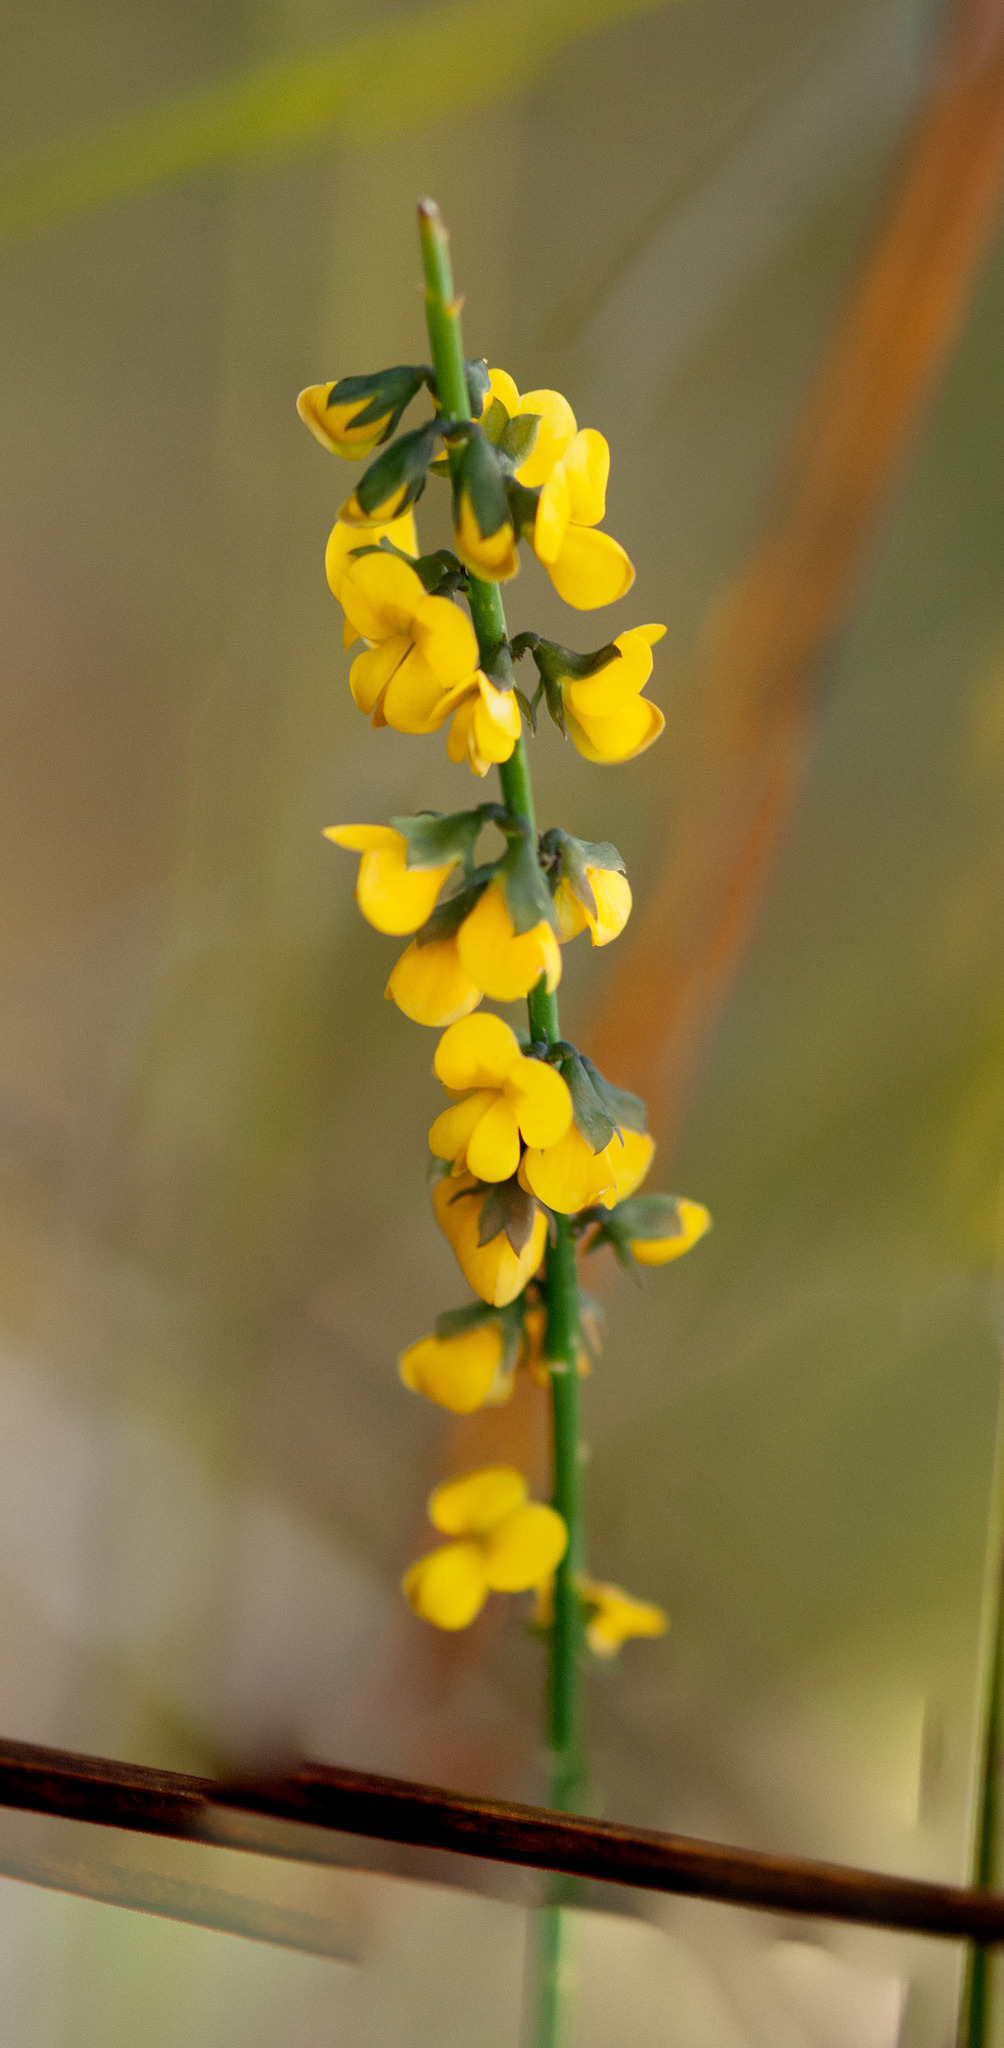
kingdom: Plantae
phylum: Tracheophyta
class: Magnoliopsida
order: Fabales
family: Fabaceae
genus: Sphaerolobium
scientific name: Sphaerolobium minus
